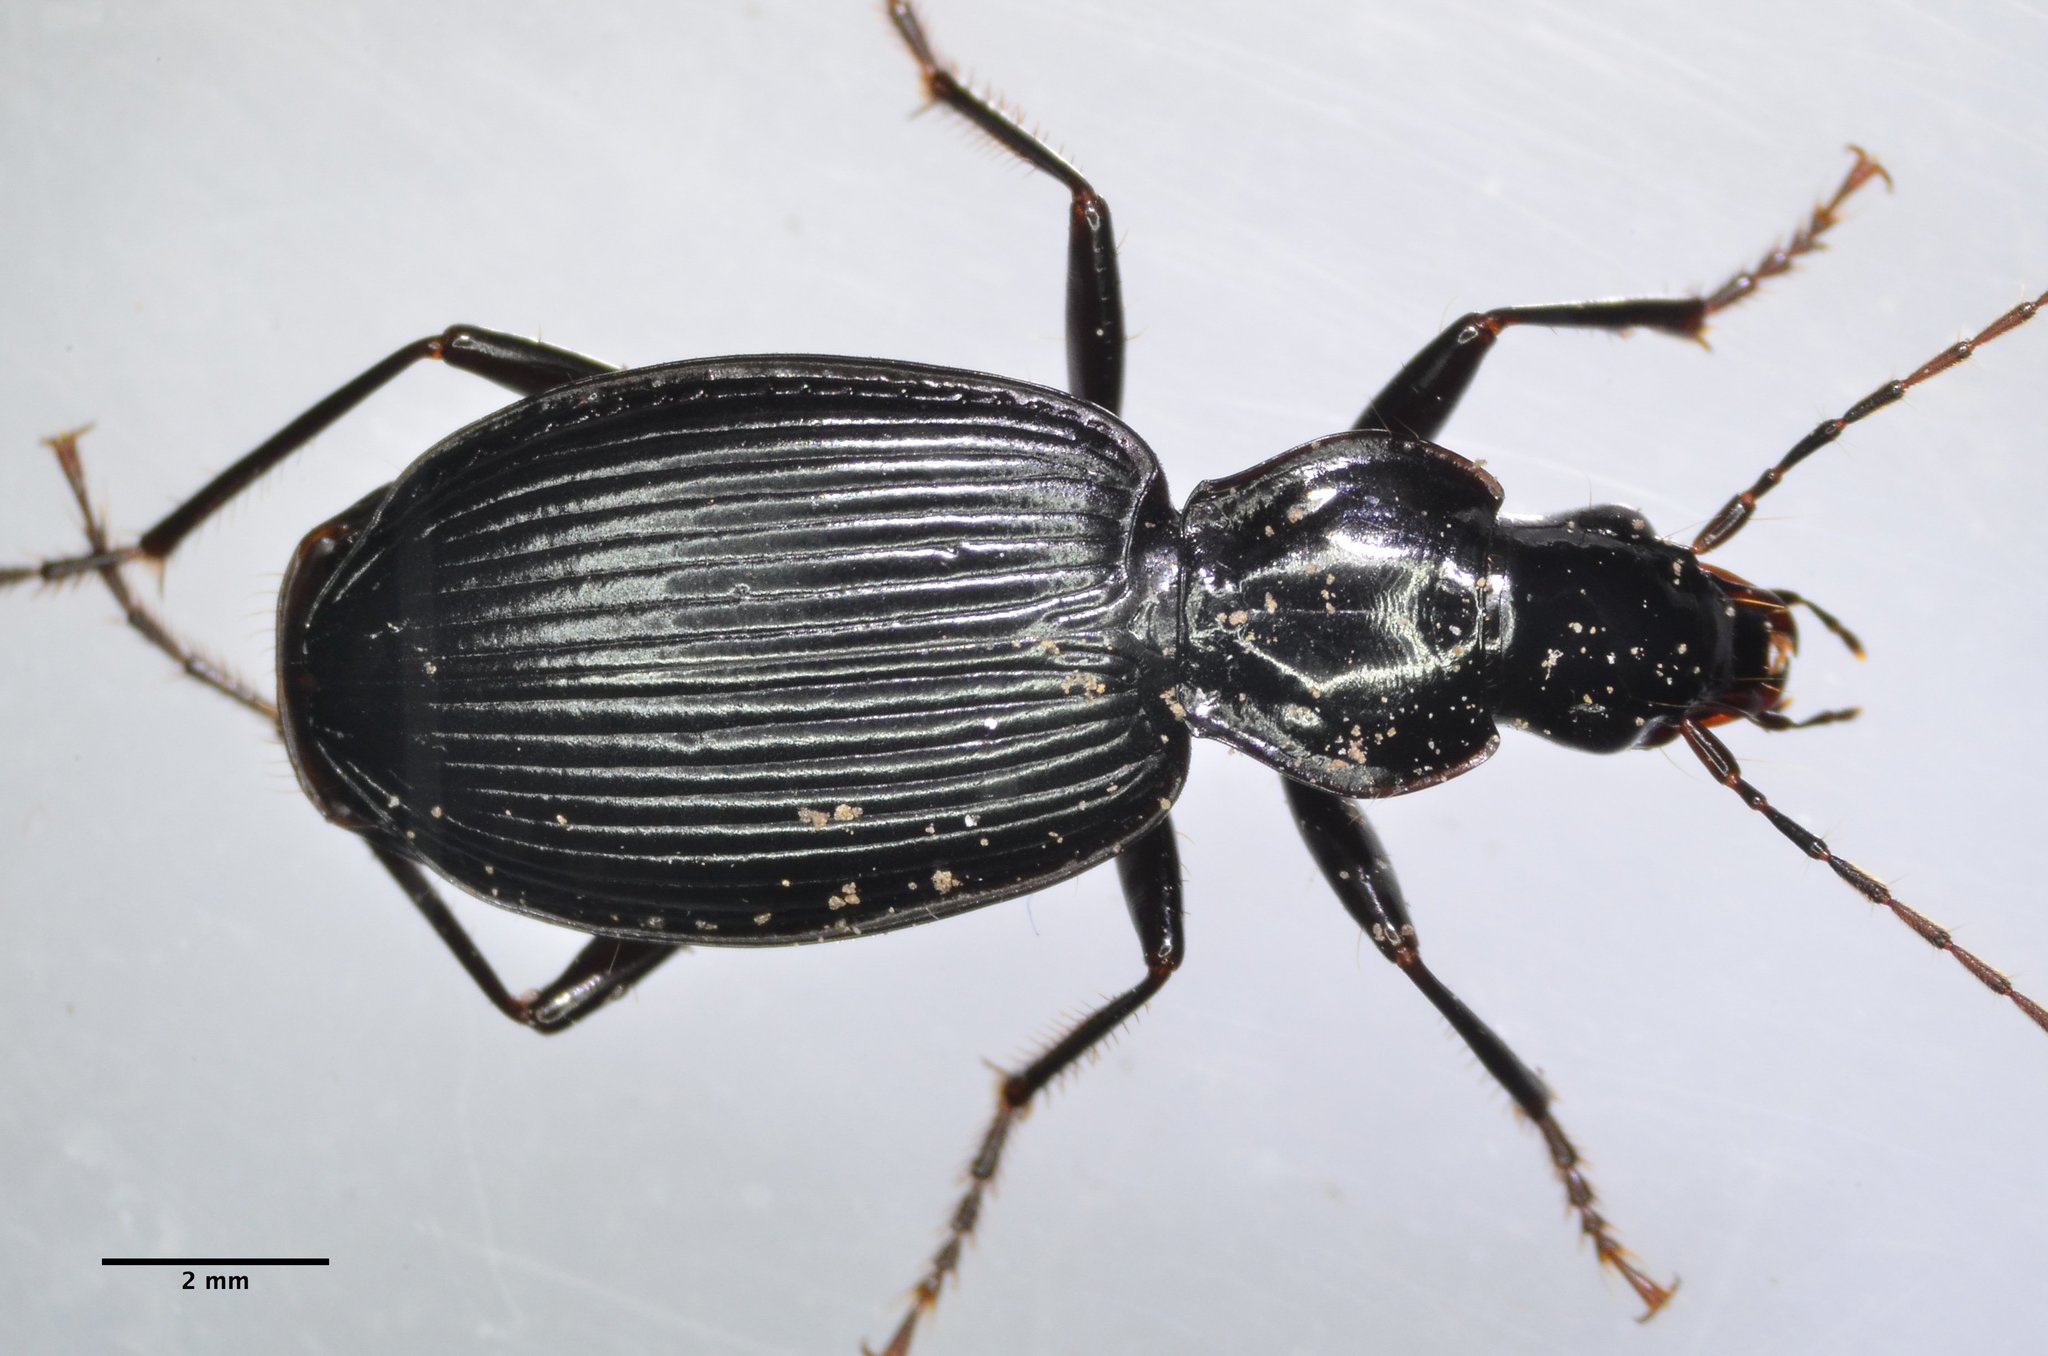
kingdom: Animalia
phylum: Arthropoda
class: Insecta
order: Coleoptera
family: Carabidae
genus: Platynus
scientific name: Platynus ovipennis
